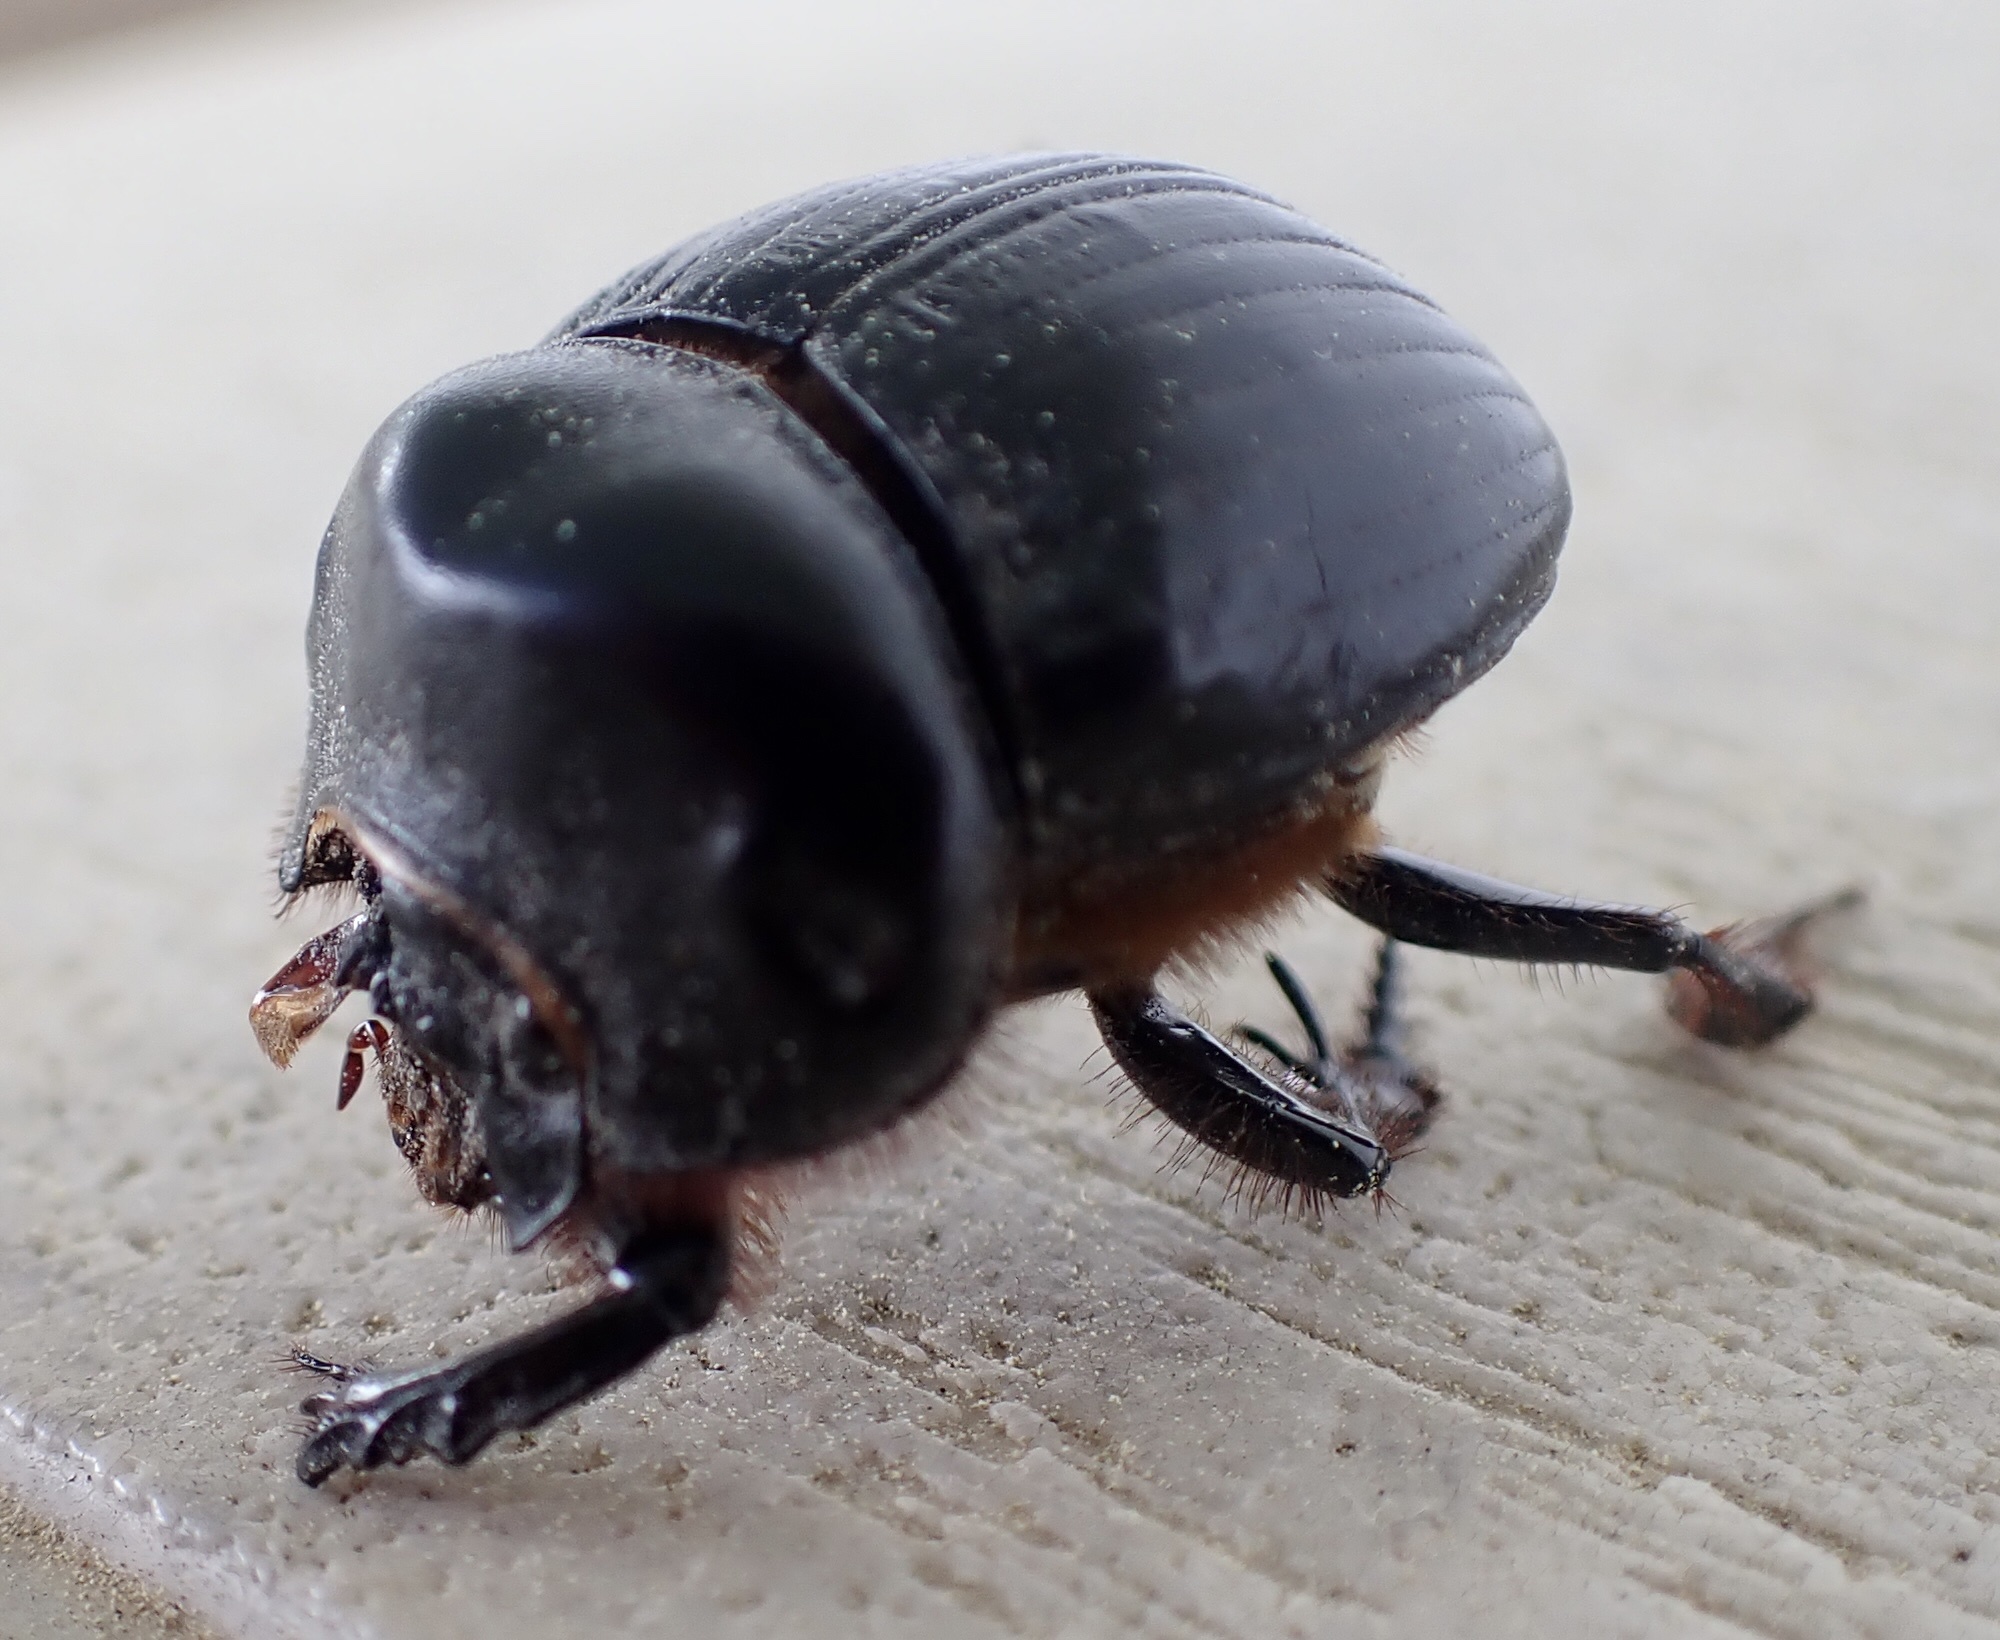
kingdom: Animalia
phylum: Arthropoda
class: Insecta
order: Coleoptera
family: Scarabaeidae
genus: Dichotomius
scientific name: Dichotomius carolinus
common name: Carolina copris
